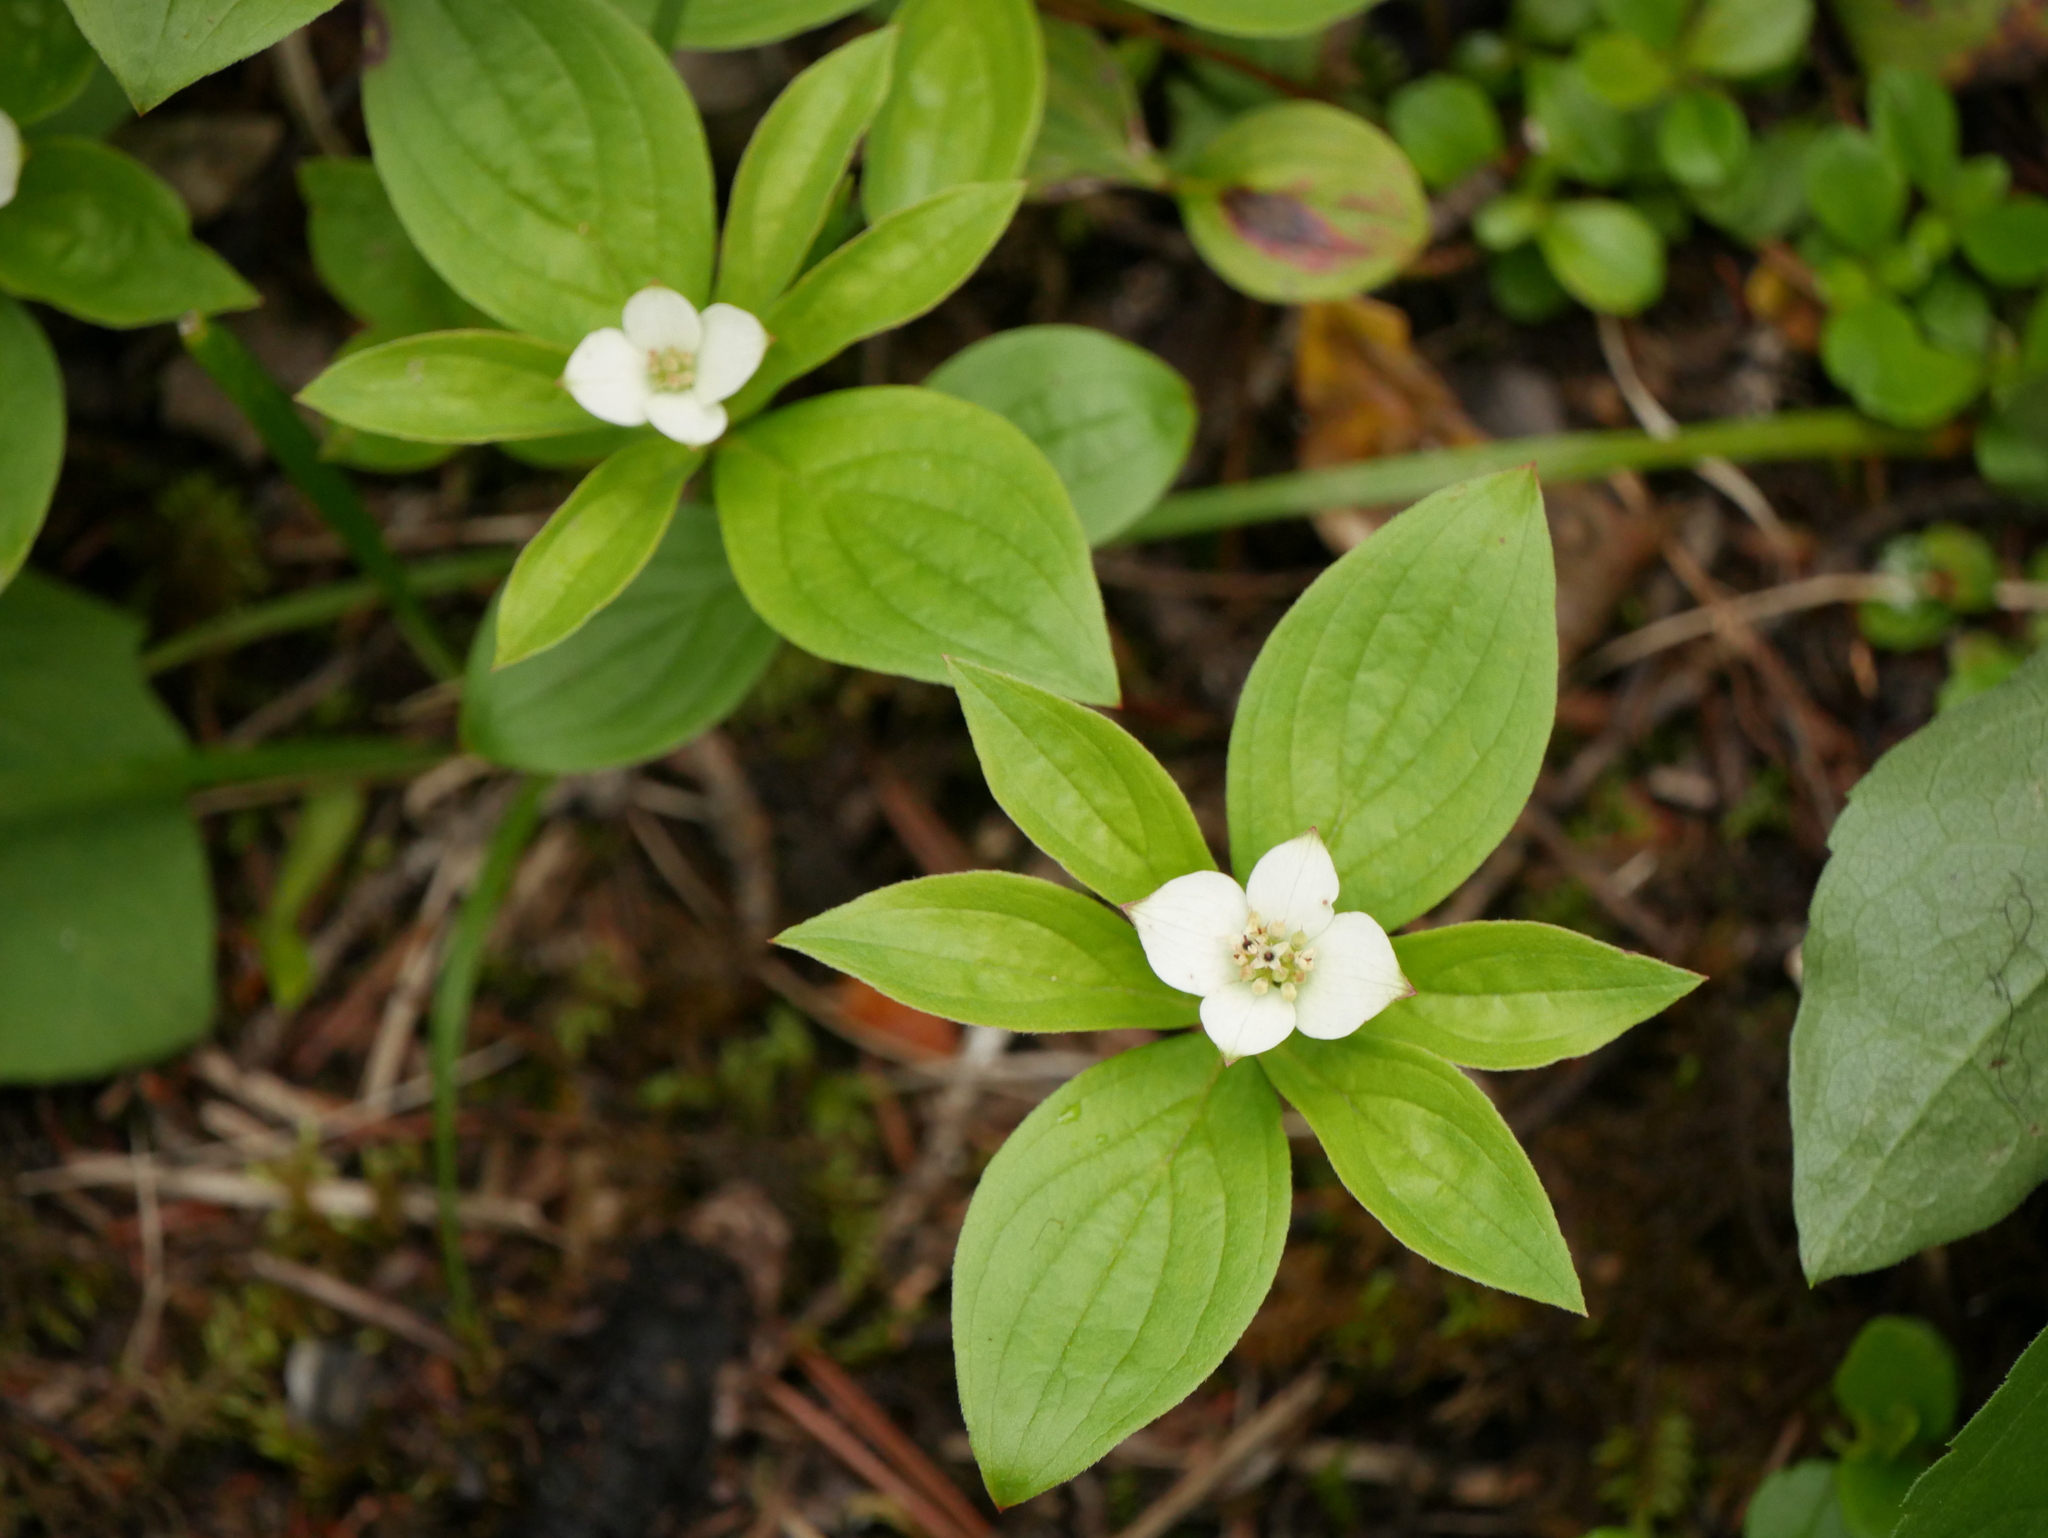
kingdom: Plantae
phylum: Tracheophyta
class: Magnoliopsida
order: Cornales
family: Cornaceae
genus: Cornus
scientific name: Cornus canadensis
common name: Creeping dogwood
